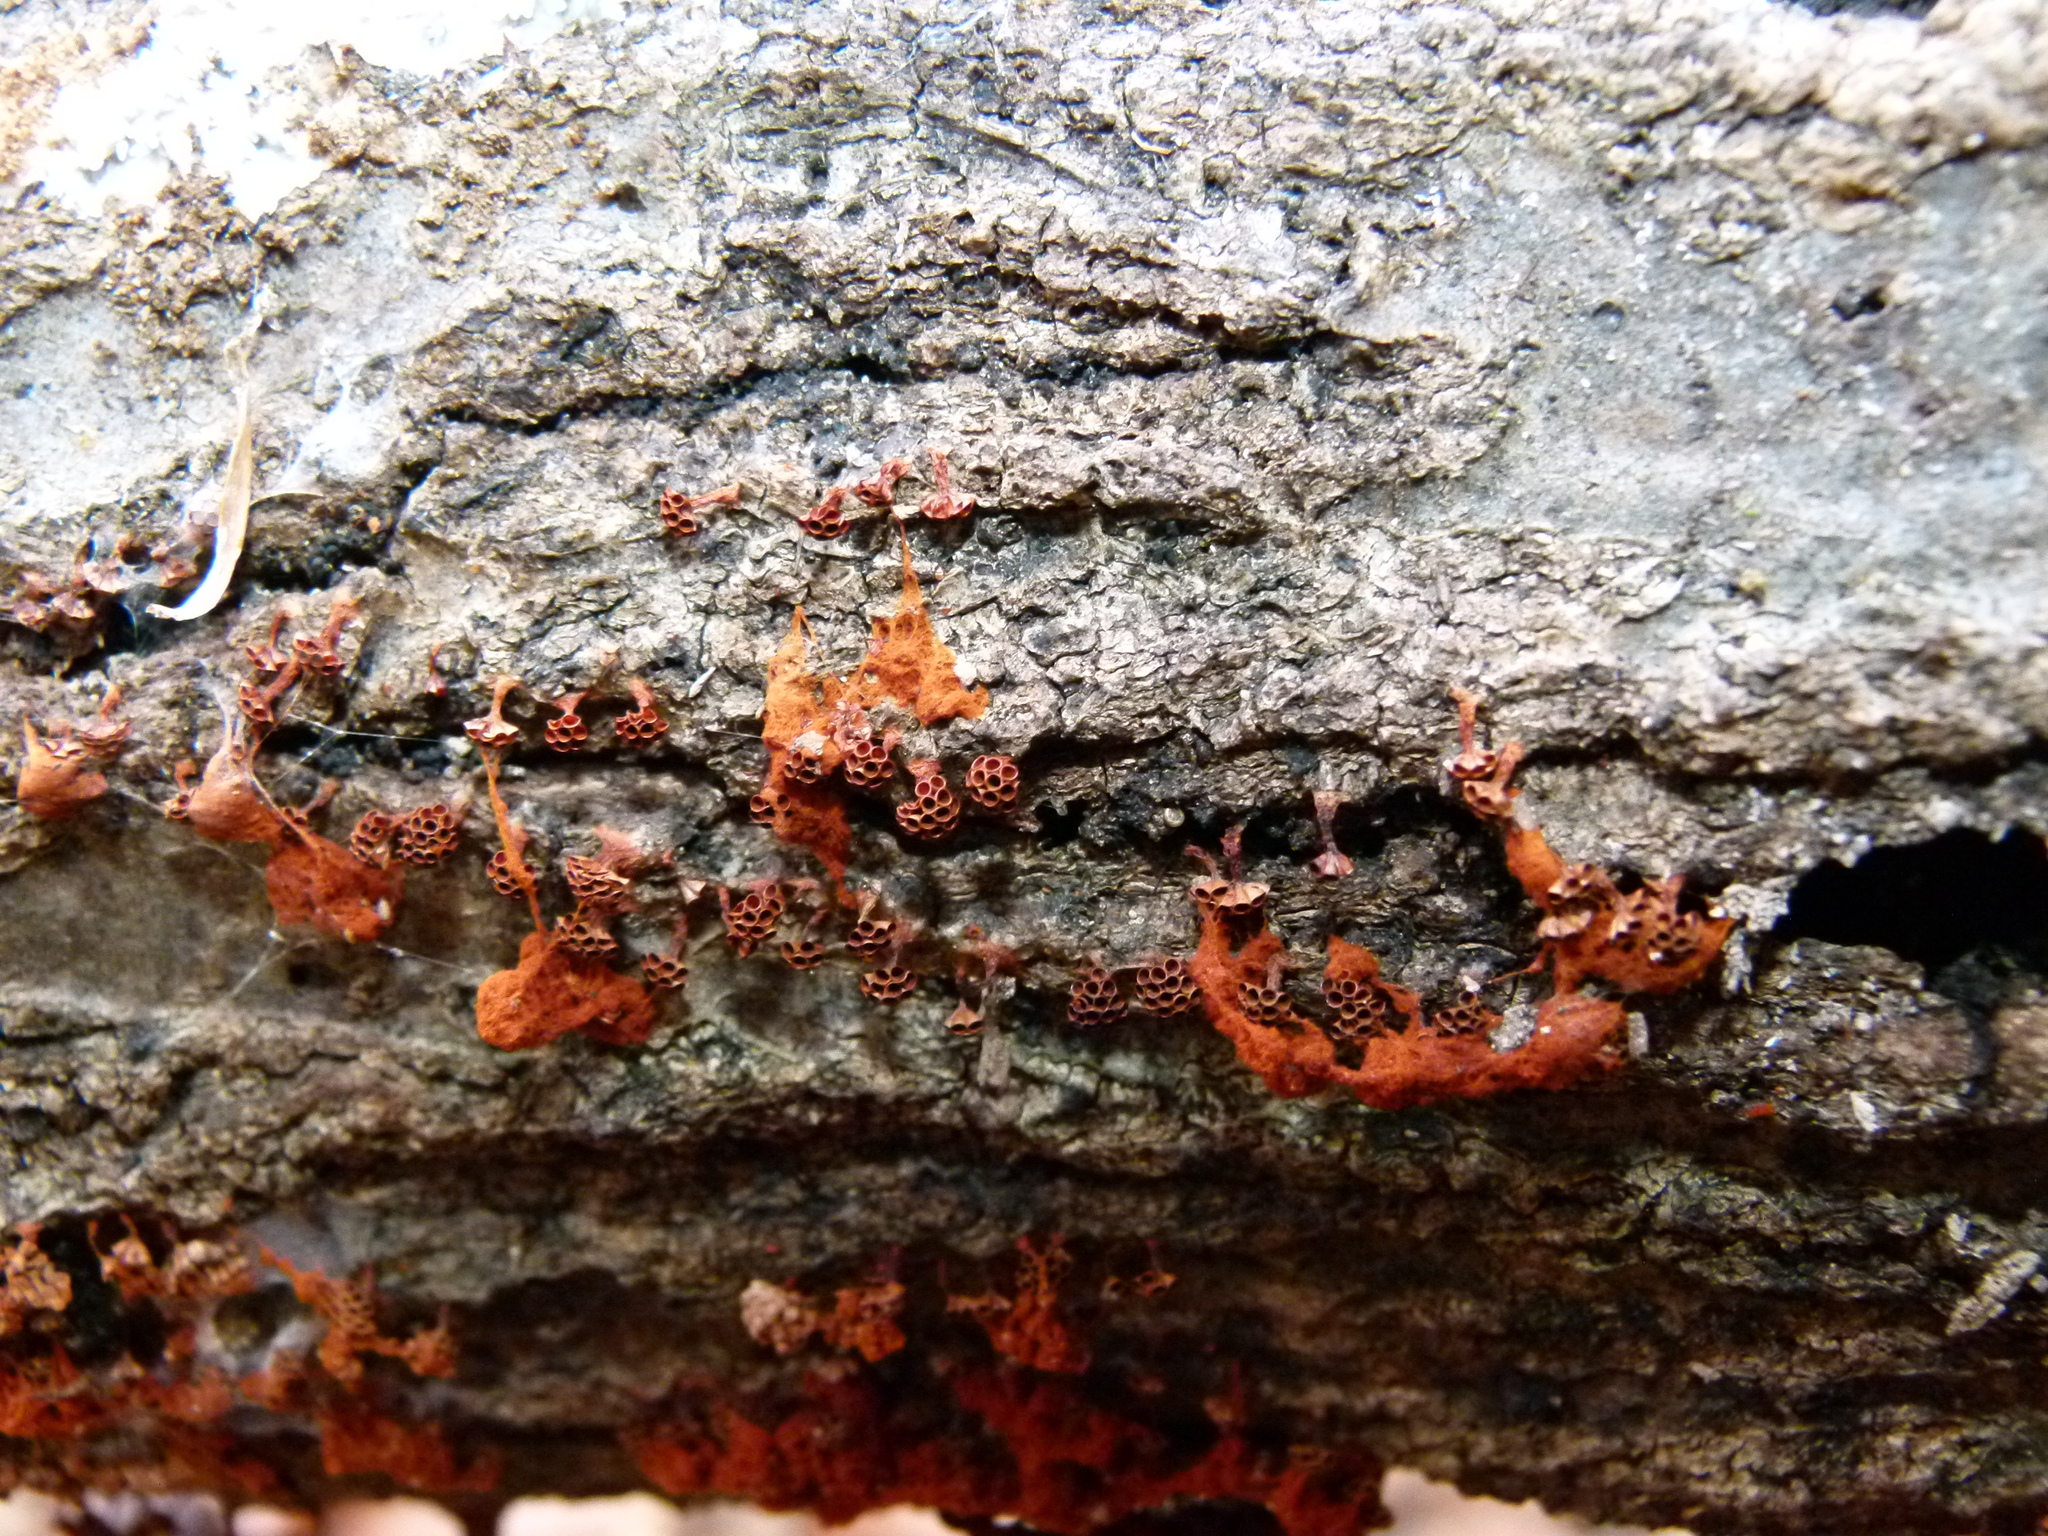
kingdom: Protozoa
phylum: Mycetozoa
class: Myxomycetes
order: Trichiales
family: Trichiaceae
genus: Metatrichia
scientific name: Metatrichia vesparia
